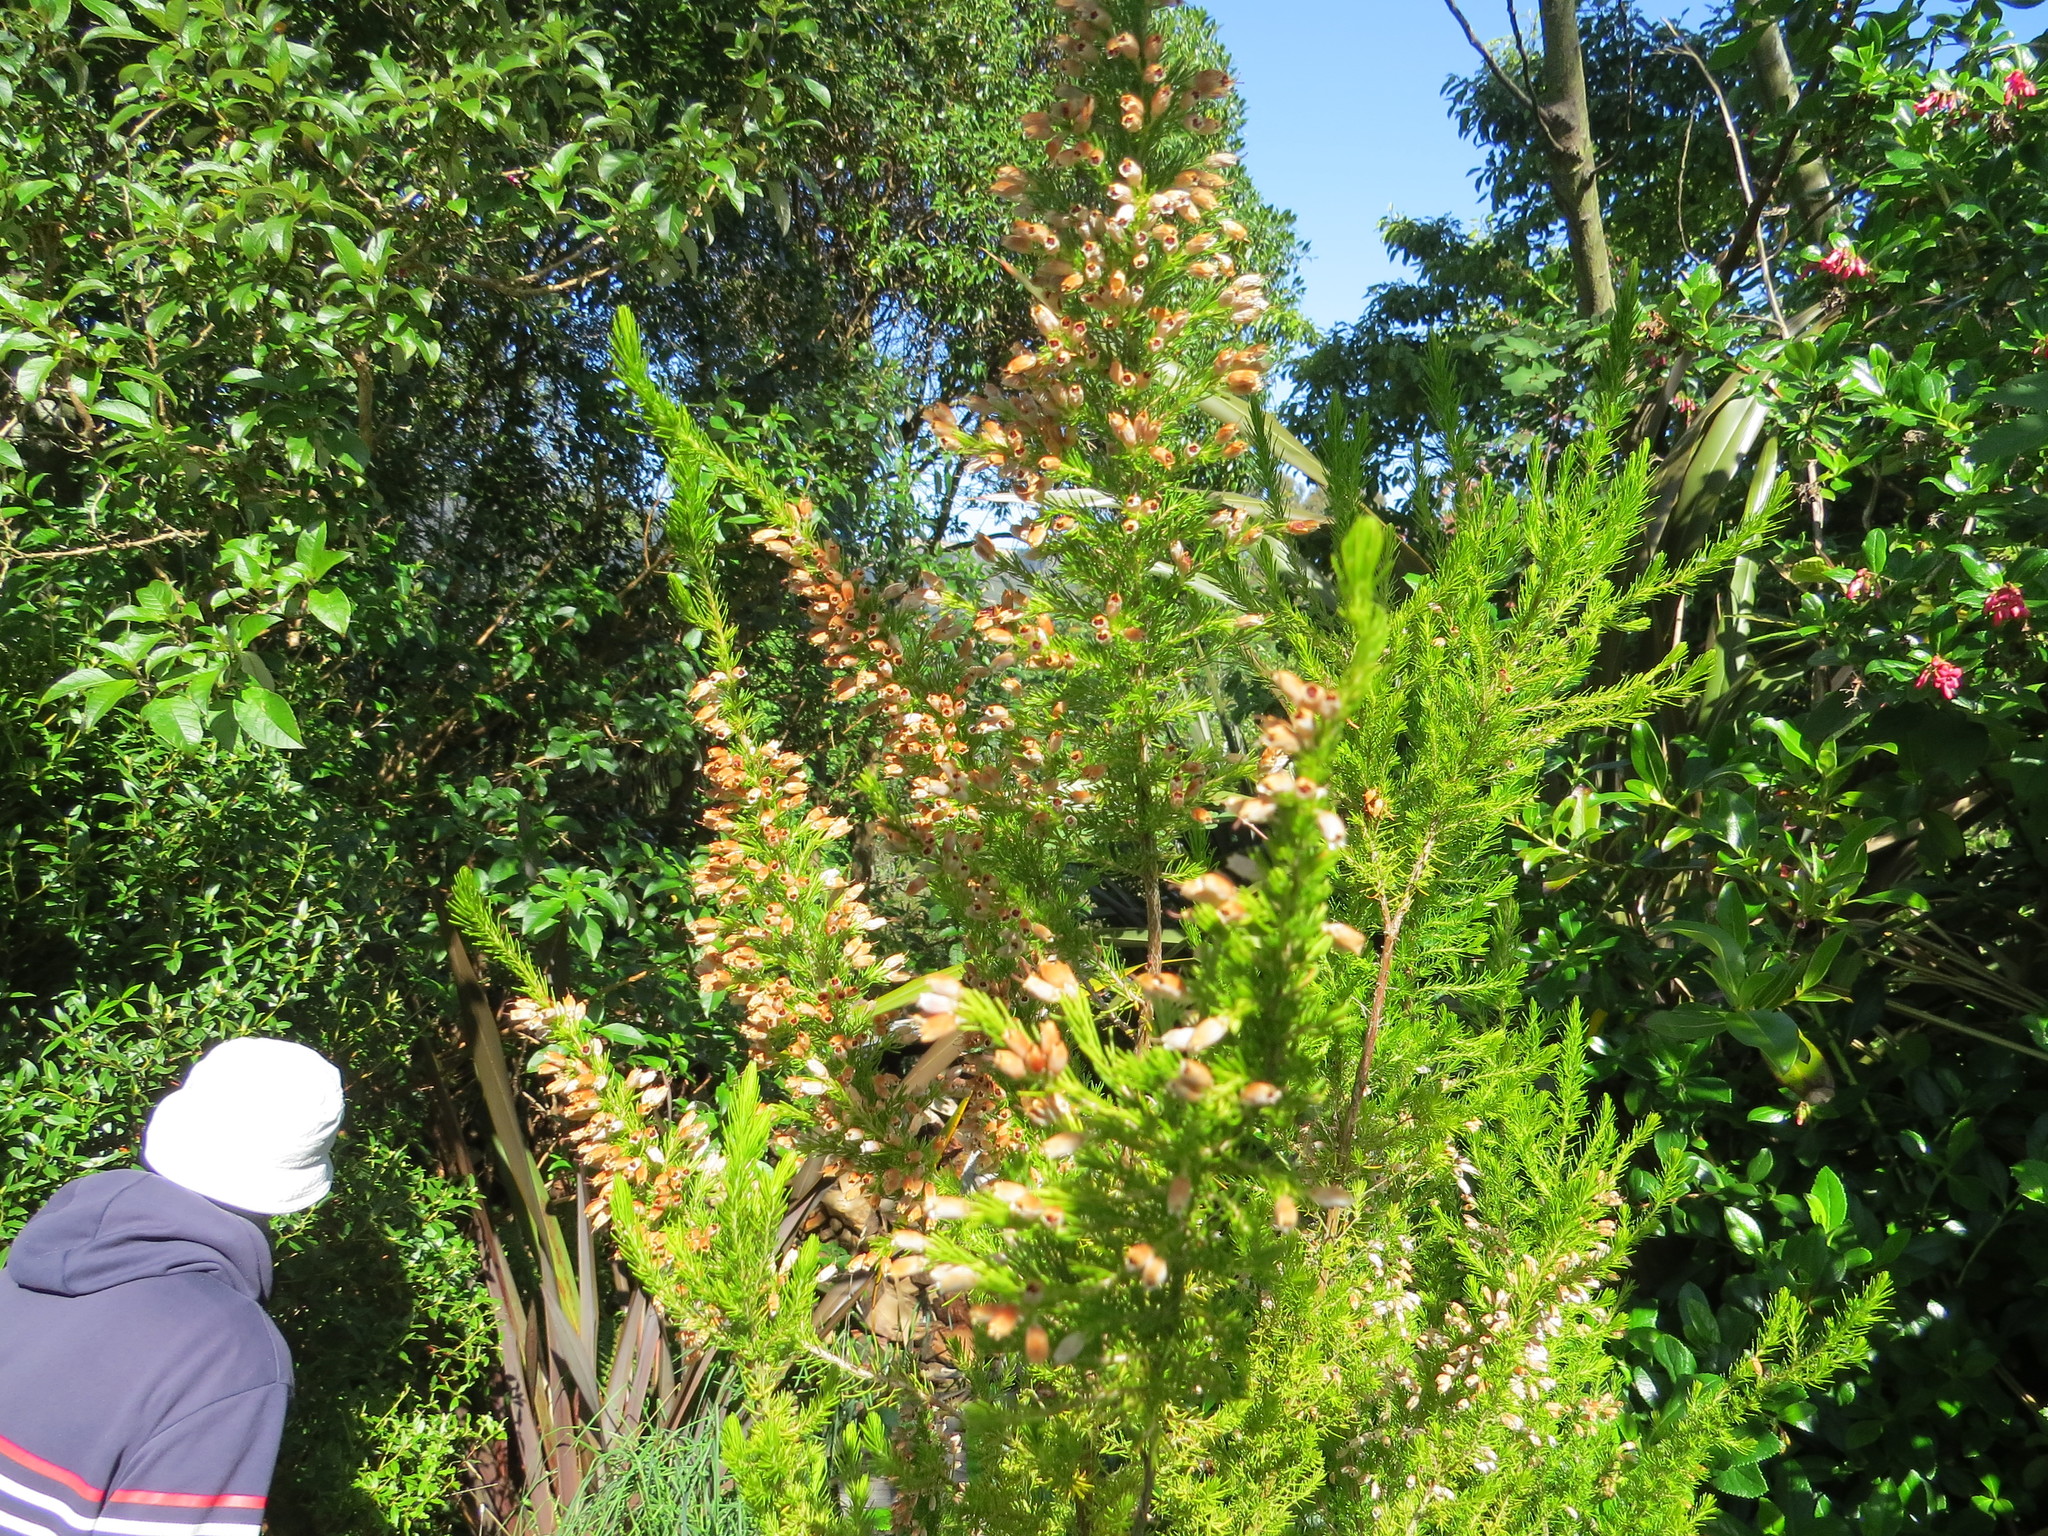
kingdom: Plantae
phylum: Tracheophyta
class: Magnoliopsida
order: Ericales
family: Ericaceae
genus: Erica
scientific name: Erica lusitanica
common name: Spanish heath
